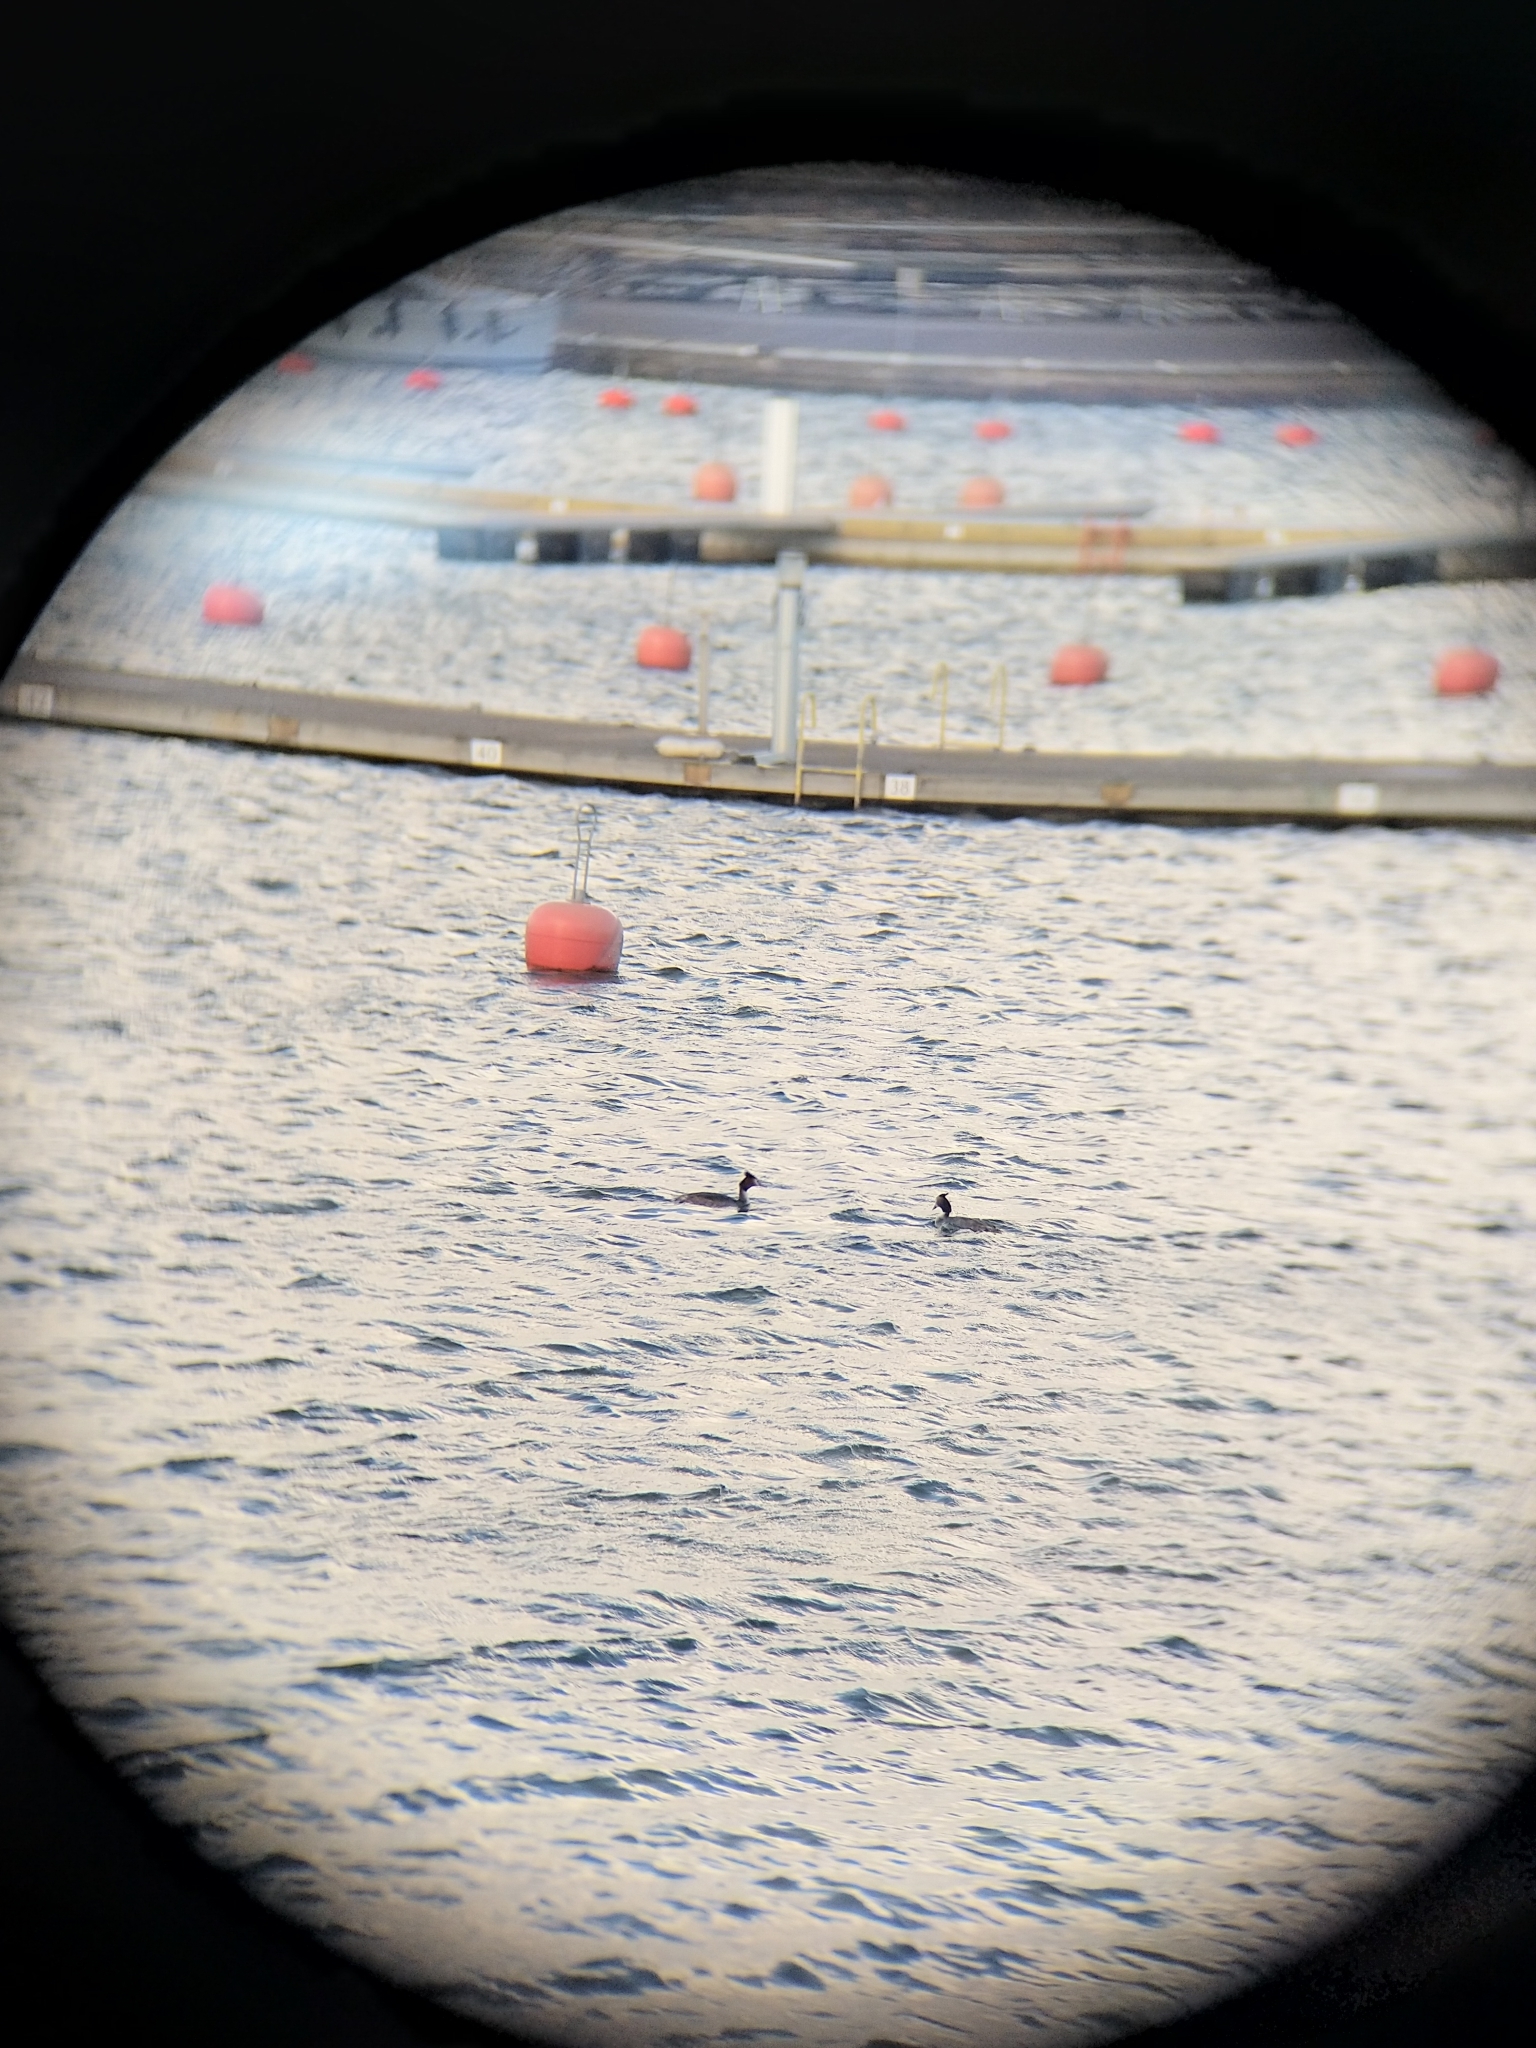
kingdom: Animalia
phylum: Chordata
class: Aves
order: Podicipediformes
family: Podicipedidae
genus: Podiceps
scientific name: Podiceps cristatus
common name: Great crested grebe
